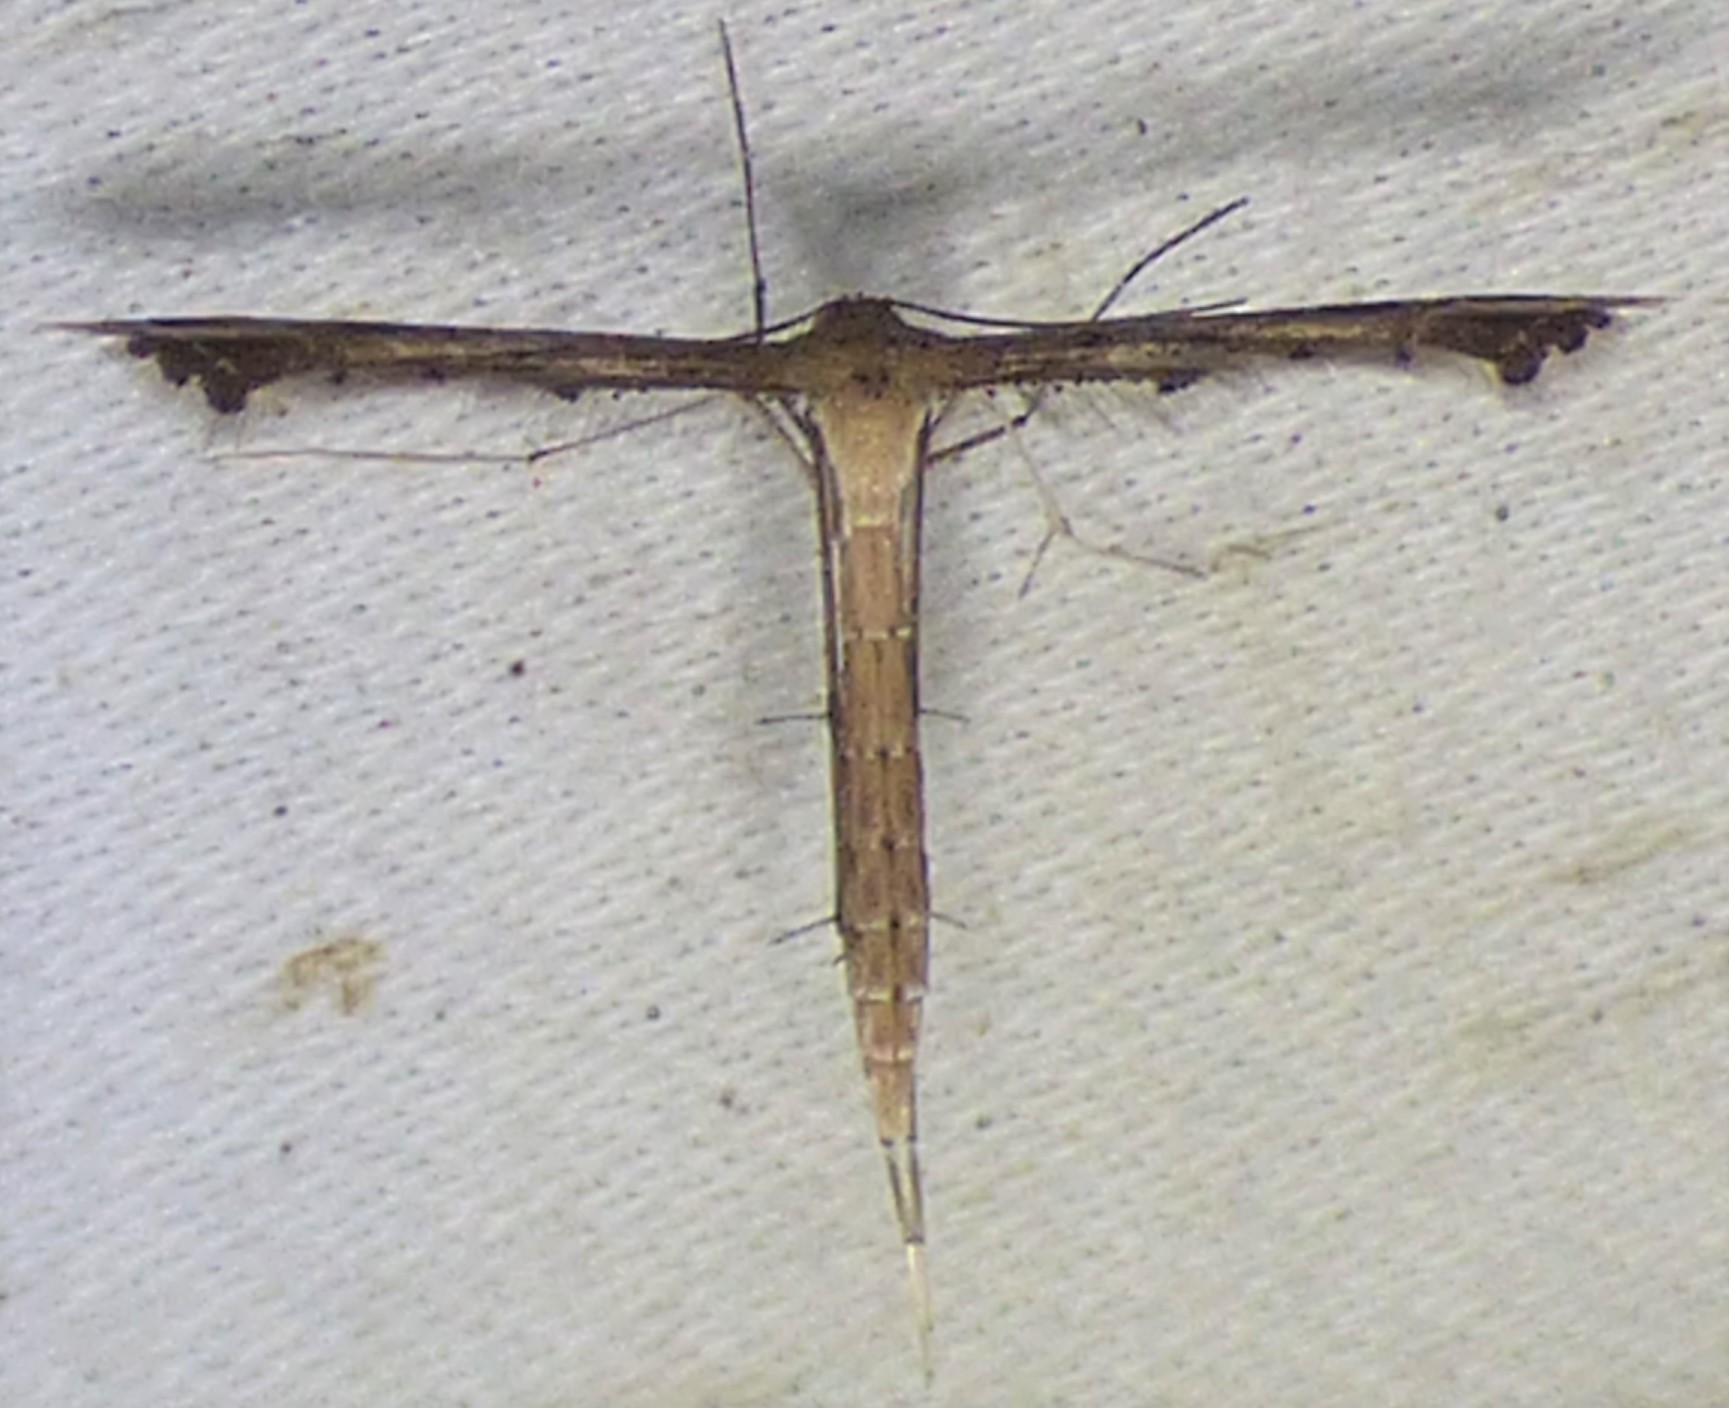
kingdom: Animalia
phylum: Arthropoda
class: Insecta
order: Lepidoptera
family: Pterophoridae
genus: Stenoptilodes
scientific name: Stenoptilodes
